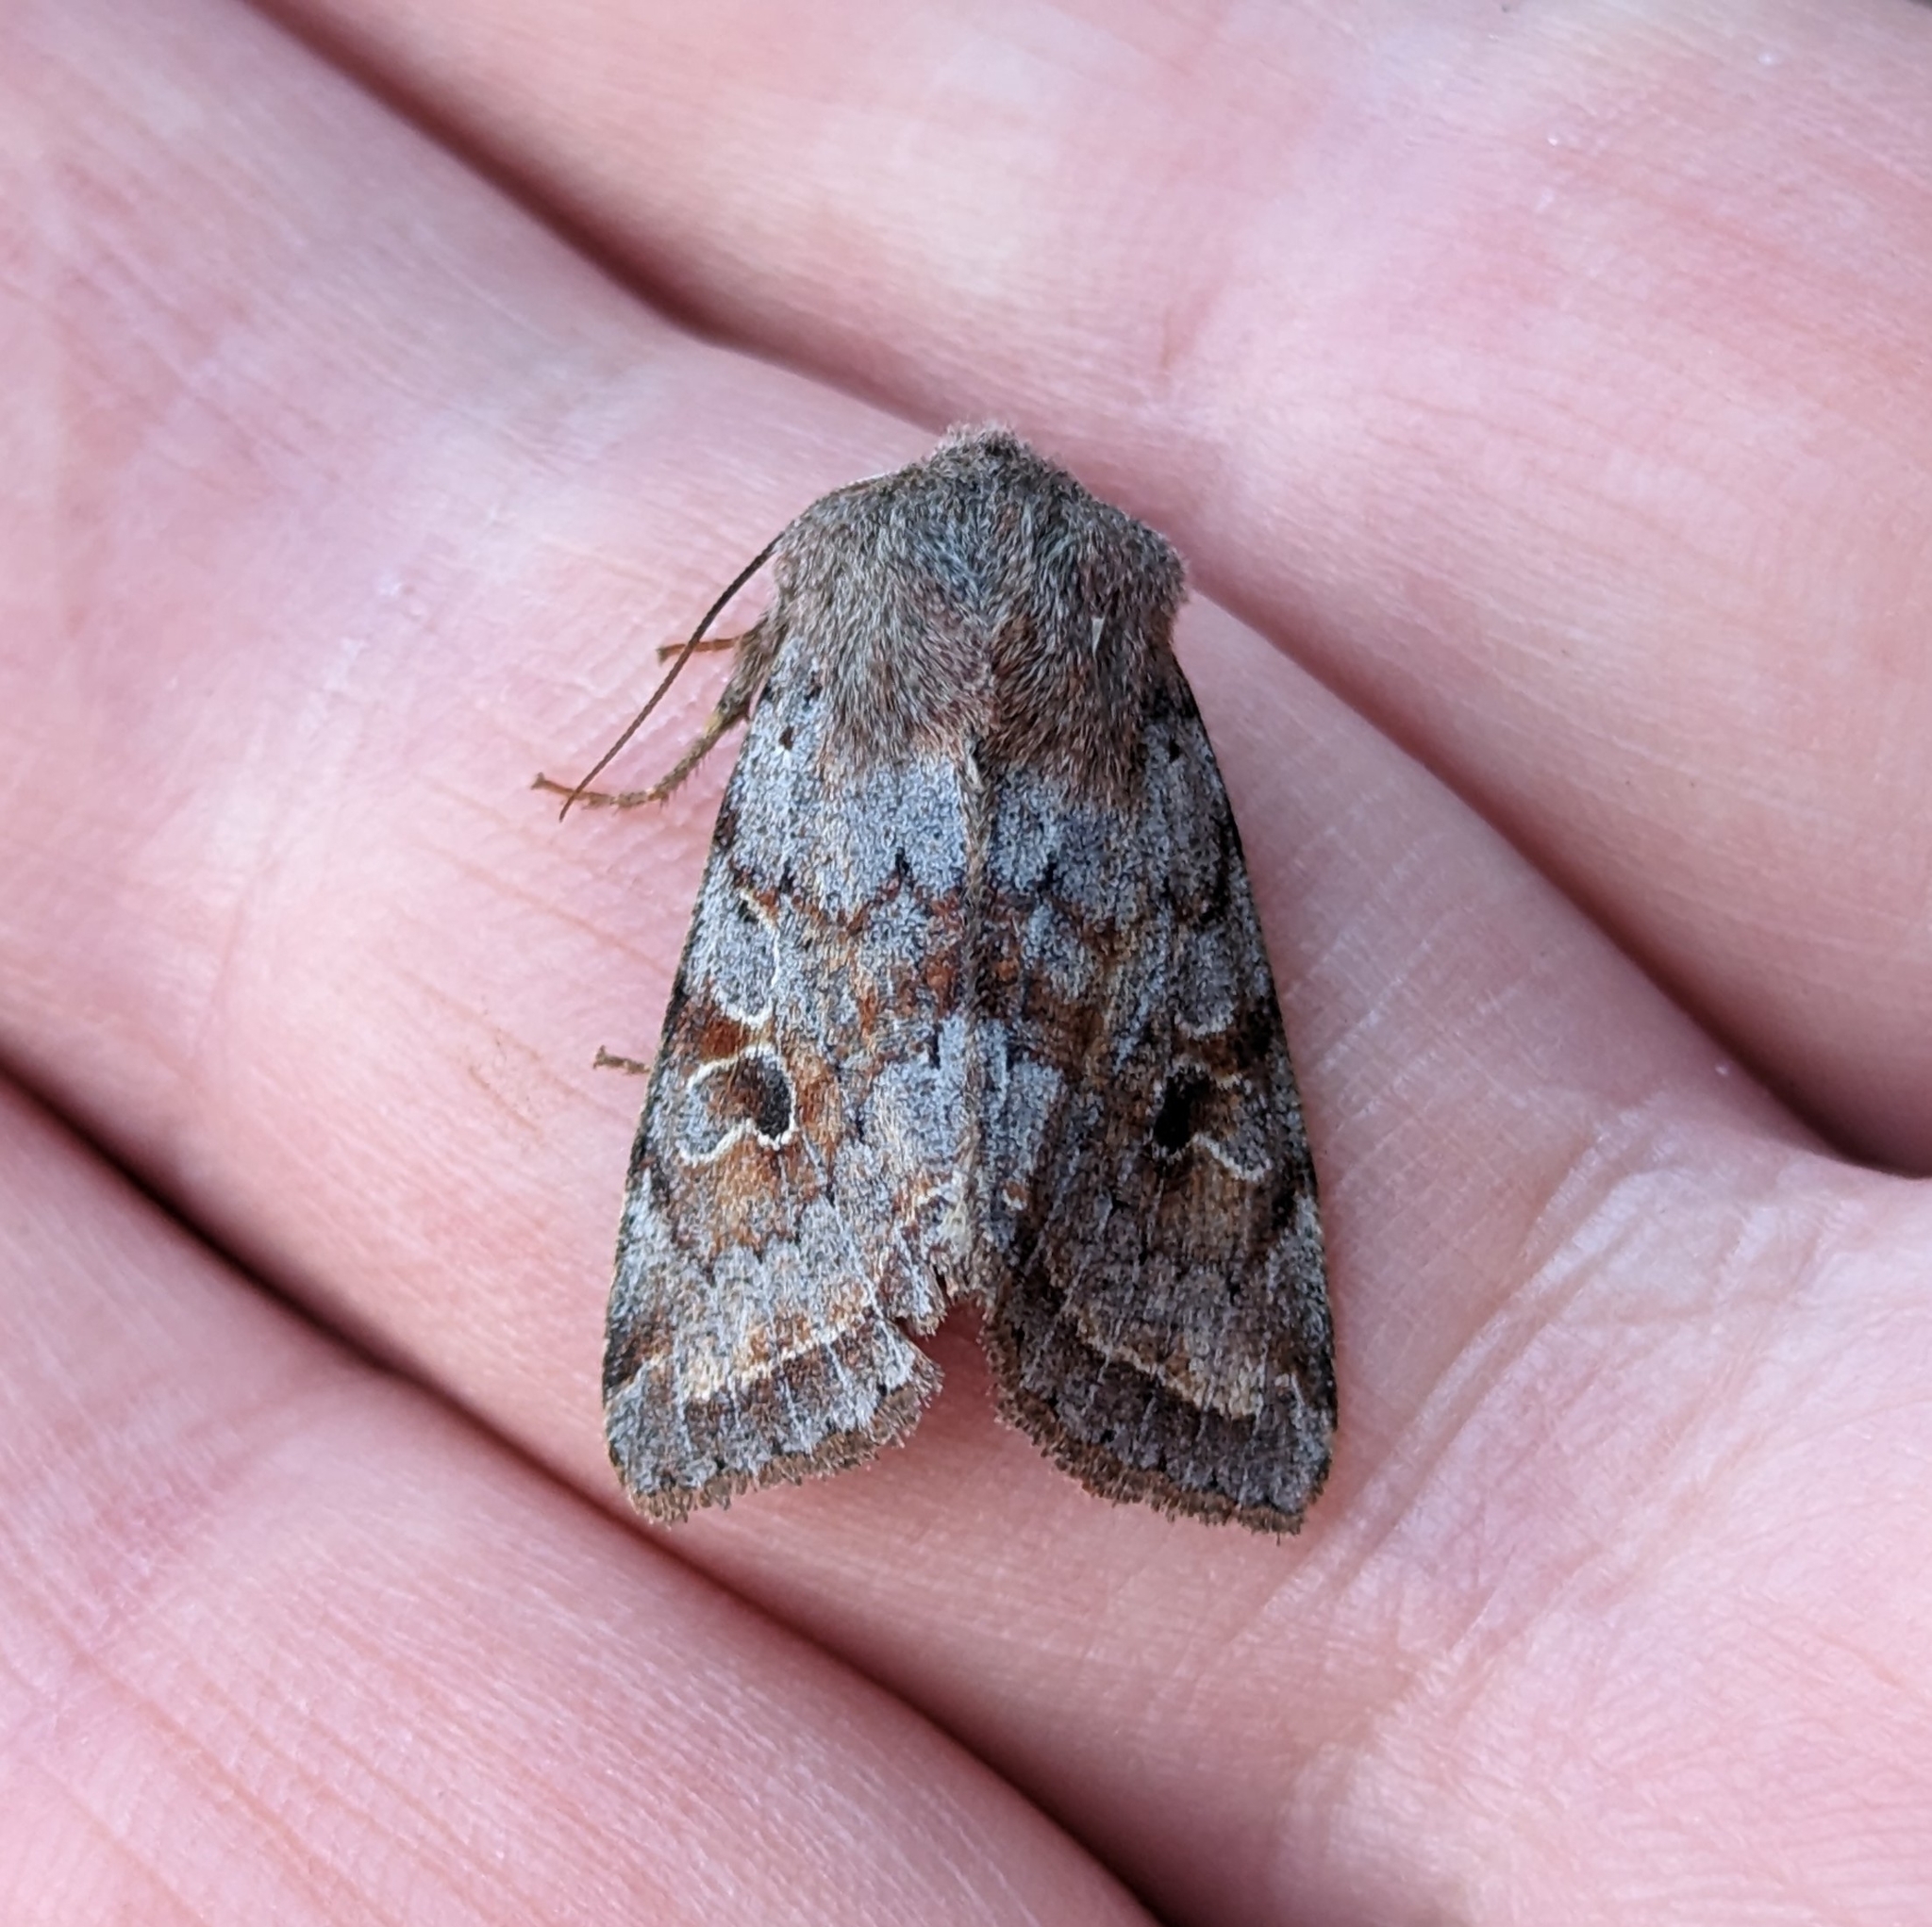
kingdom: Animalia
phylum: Arthropoda
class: Insecta
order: Lepidoptera
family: Noctuidae
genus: Orthosia
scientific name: Orthosia hibisci
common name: Green fruitworm
